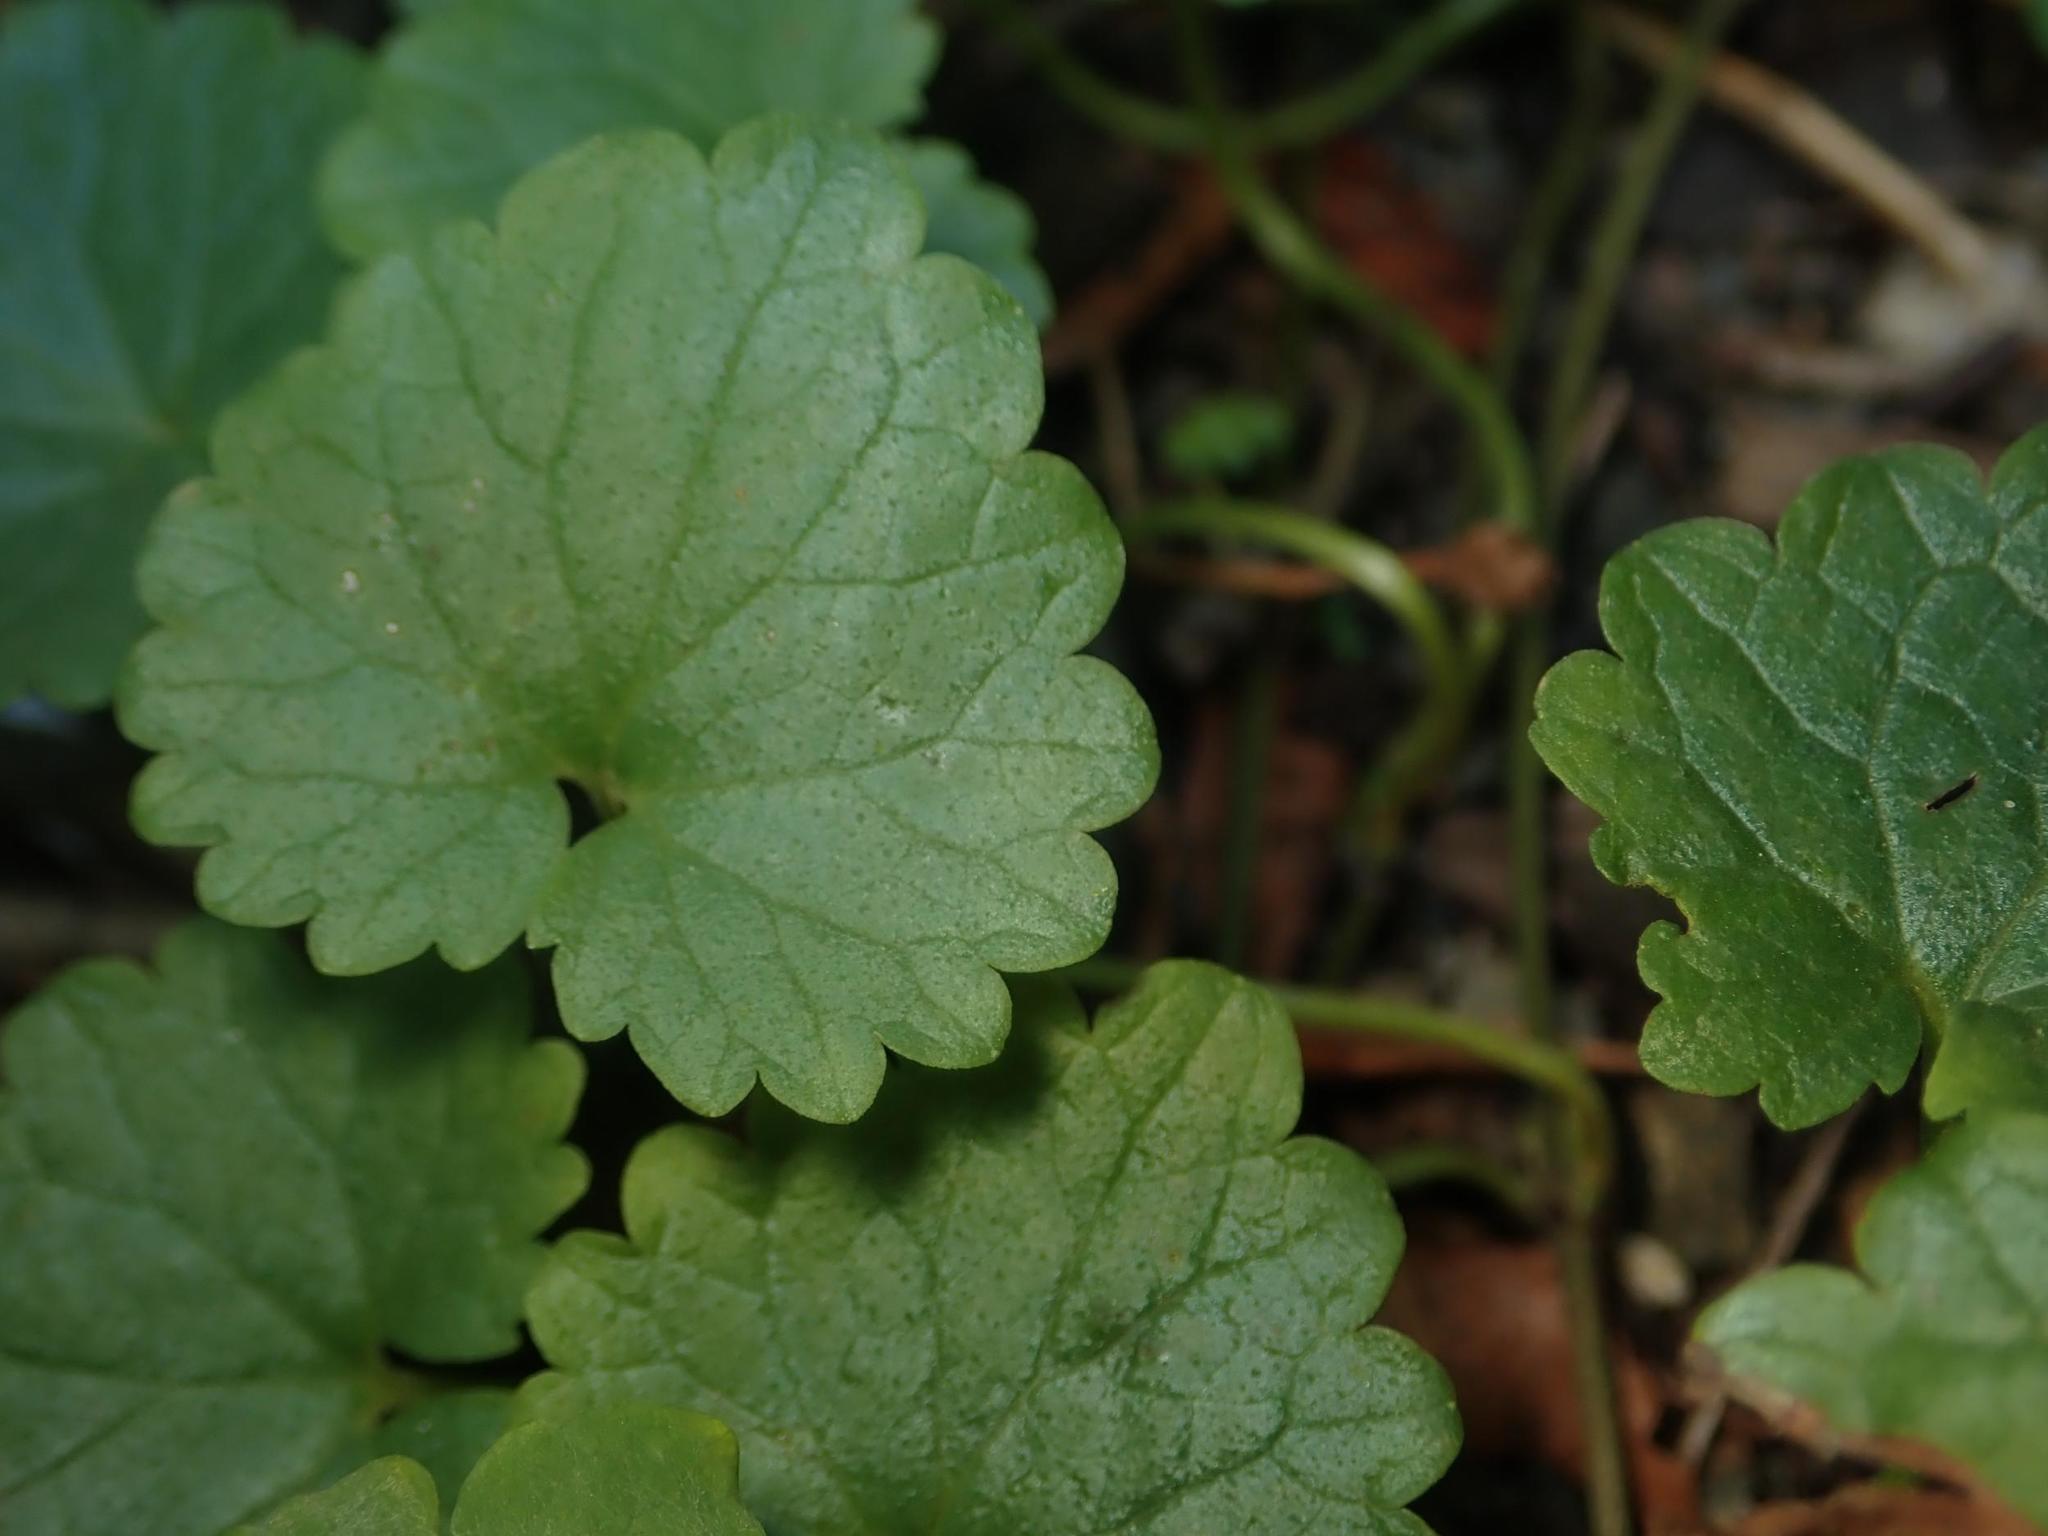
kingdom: Plantae
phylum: Tracheophyta
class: Magnoliopsida
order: Lamiales
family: Lamiaceae
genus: Glechoma
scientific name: Glechoma hederacea
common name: Ground ivy
